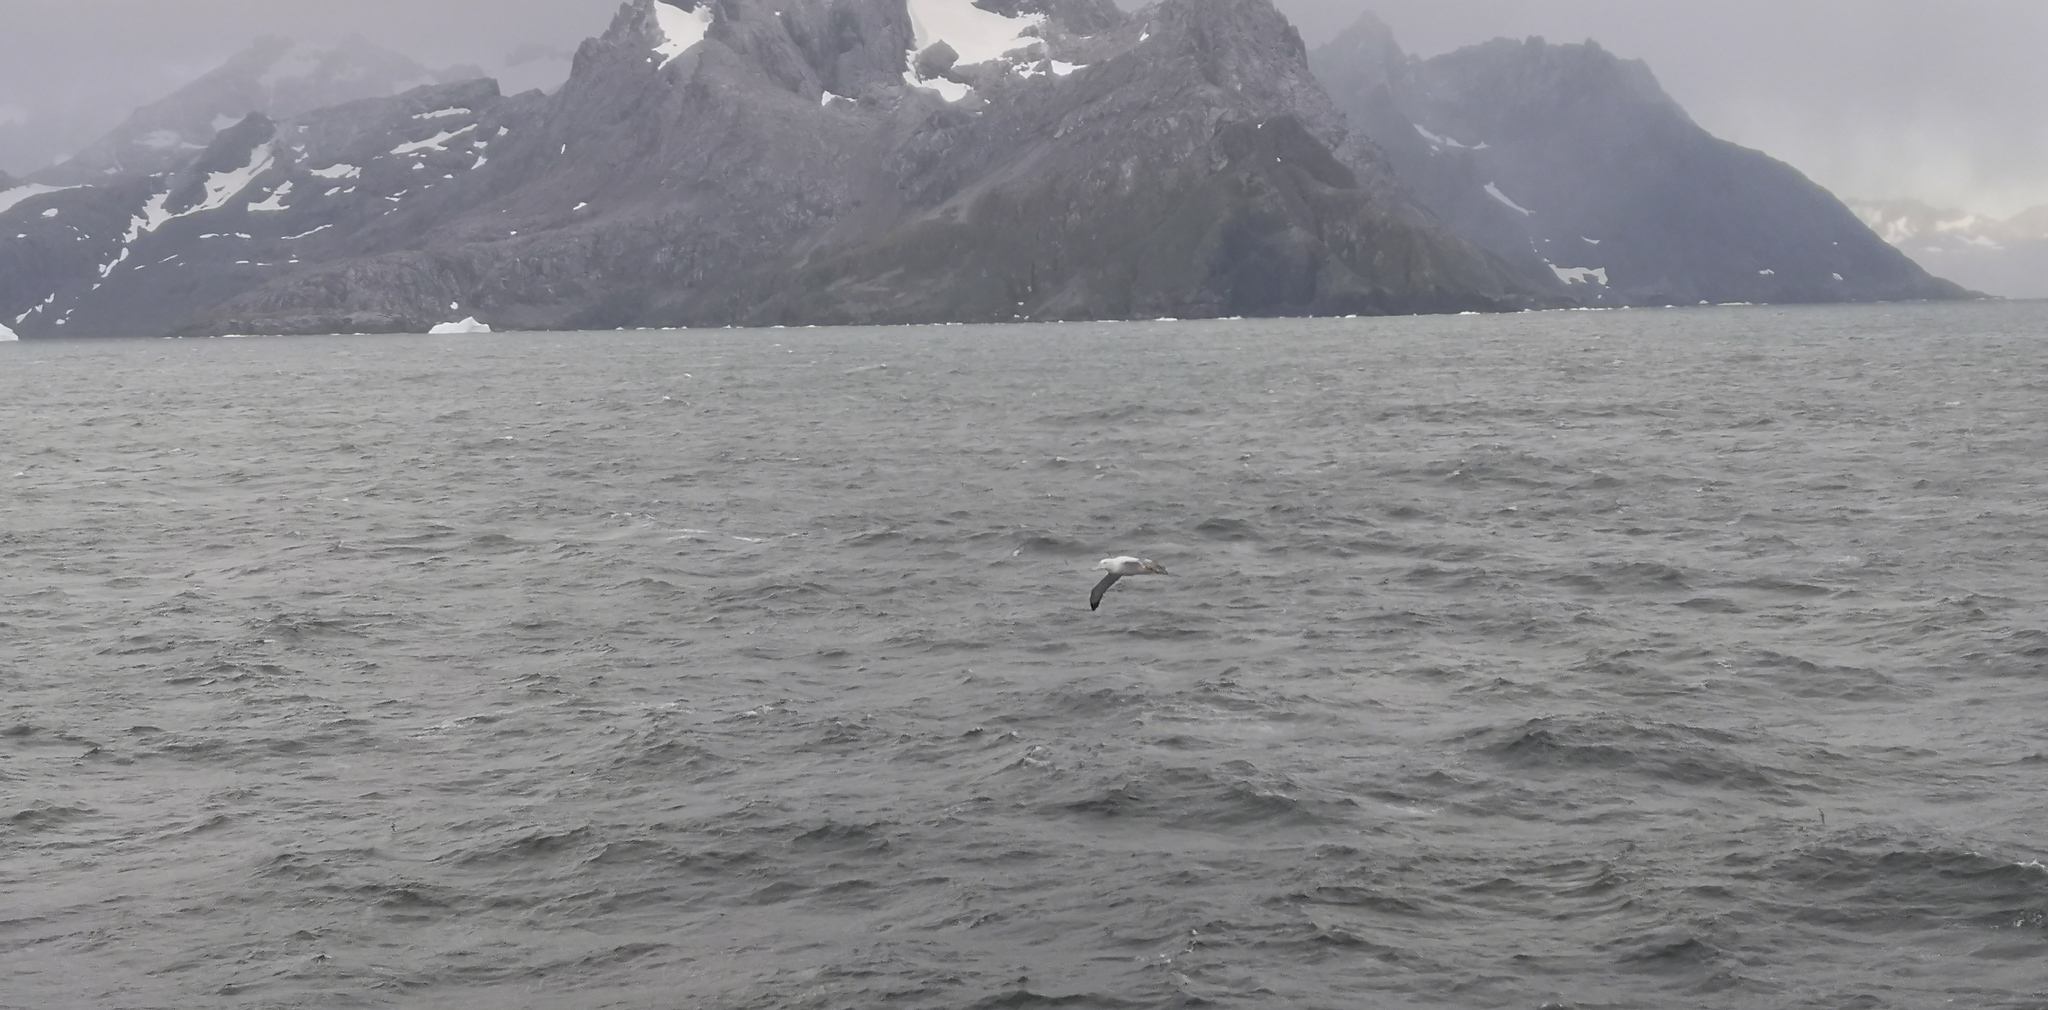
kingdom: Animalia
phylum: Chordata
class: Aves
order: Procellariiformes
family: Diomedeidae
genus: Diomedea
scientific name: Diomedea exulans
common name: Wandering albatross
